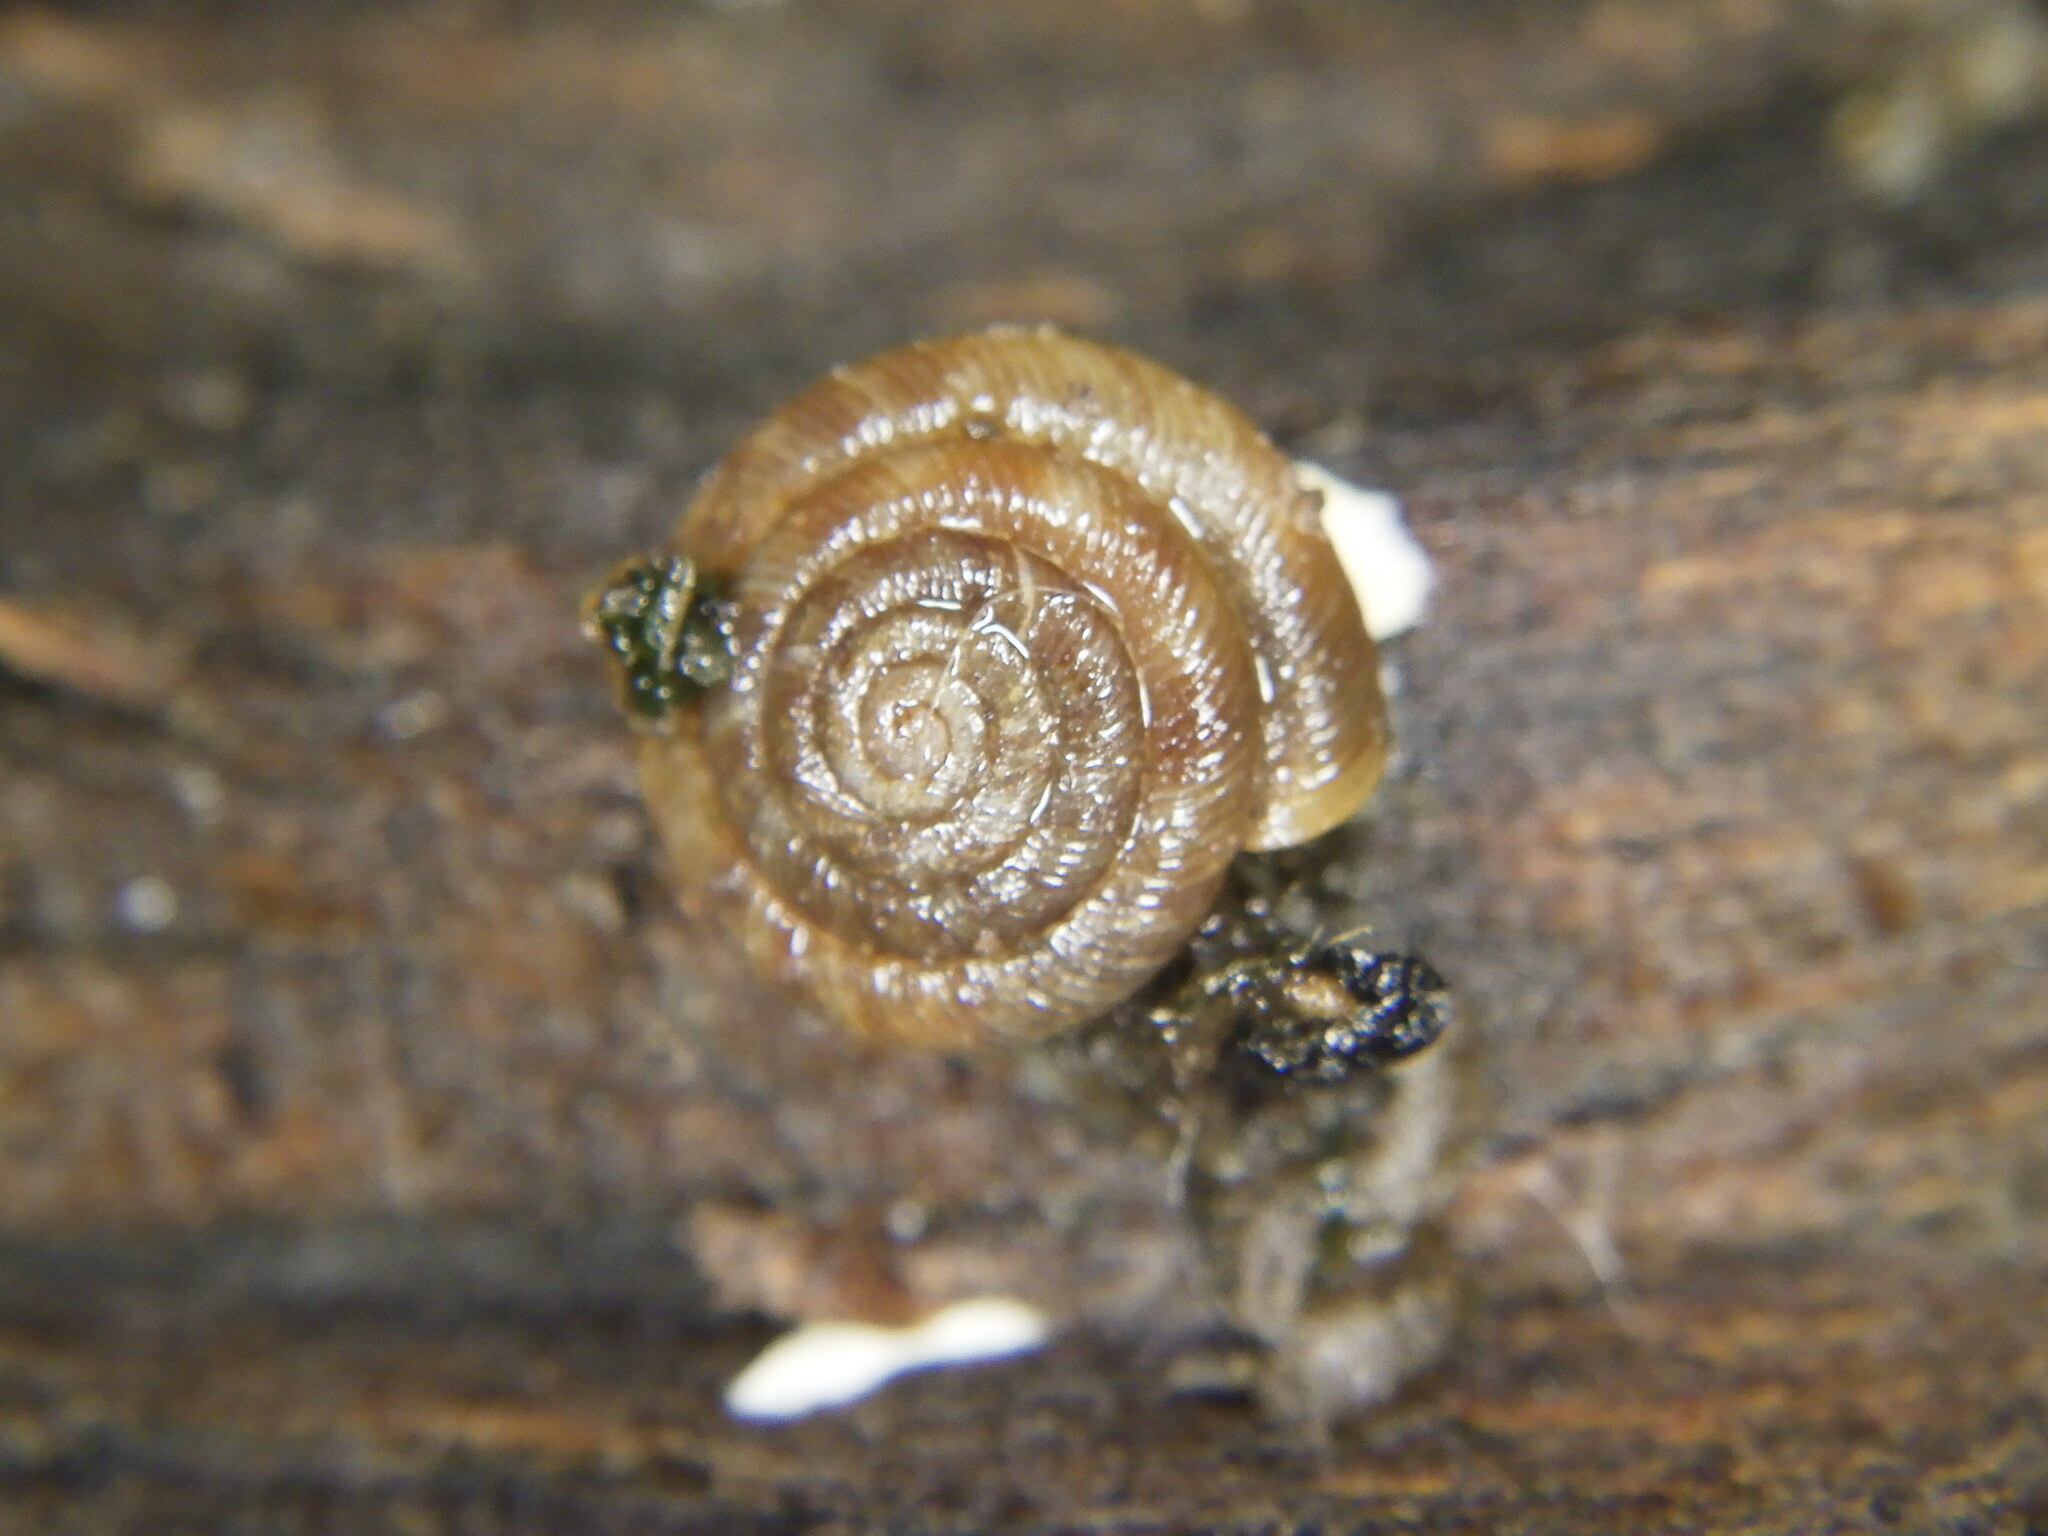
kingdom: Animalia
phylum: Mollusca
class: Gastropoda
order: Stylommatophora
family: Discidae
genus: Discus
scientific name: Discus rotundatus
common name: Rounded snail
